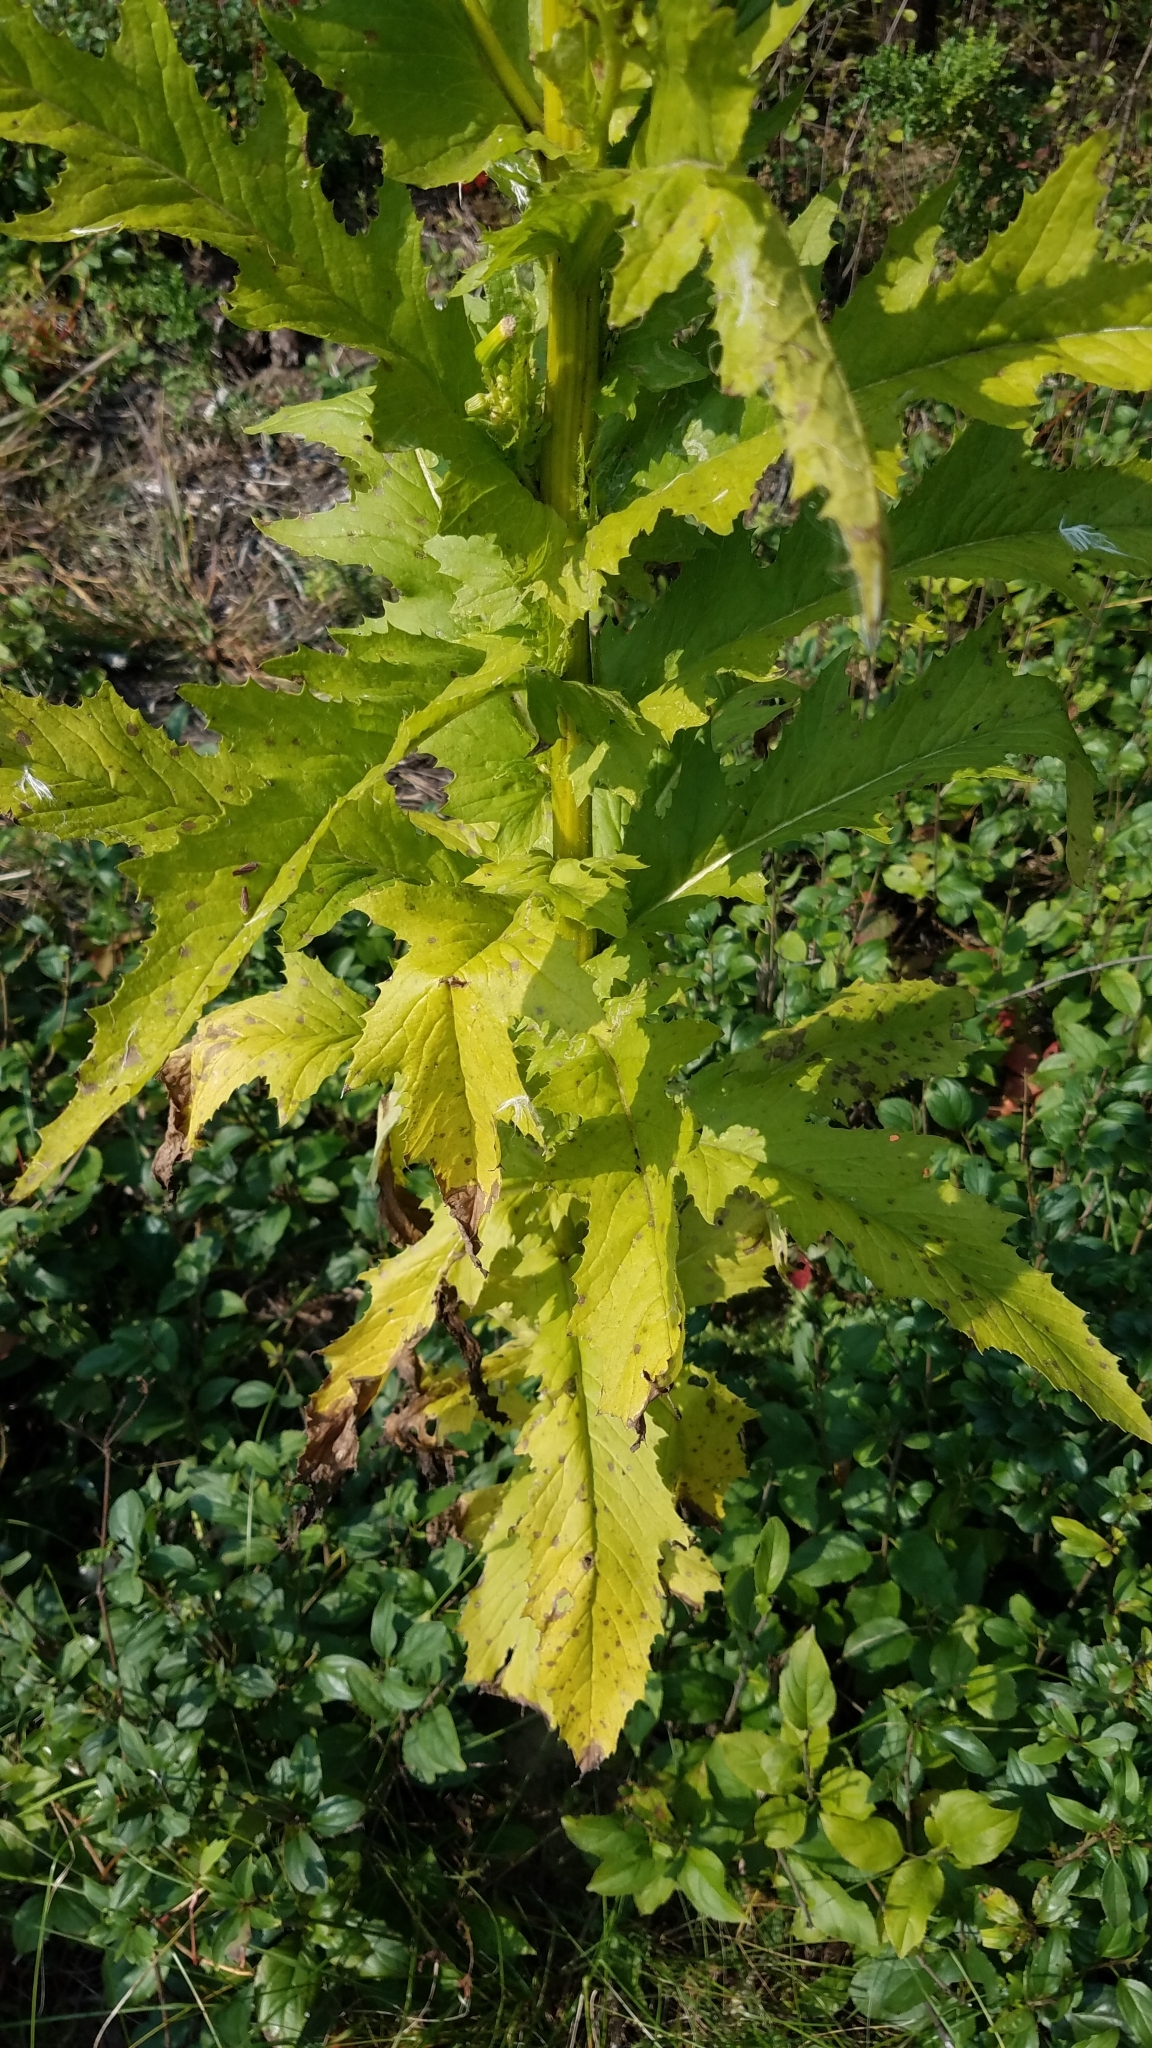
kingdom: Plantae
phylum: Tracheophyta
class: Magnoliopsida
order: Asterales
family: Asteraceae
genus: Erechtites
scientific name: Erechtites hieraciifolius
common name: American burnweed
